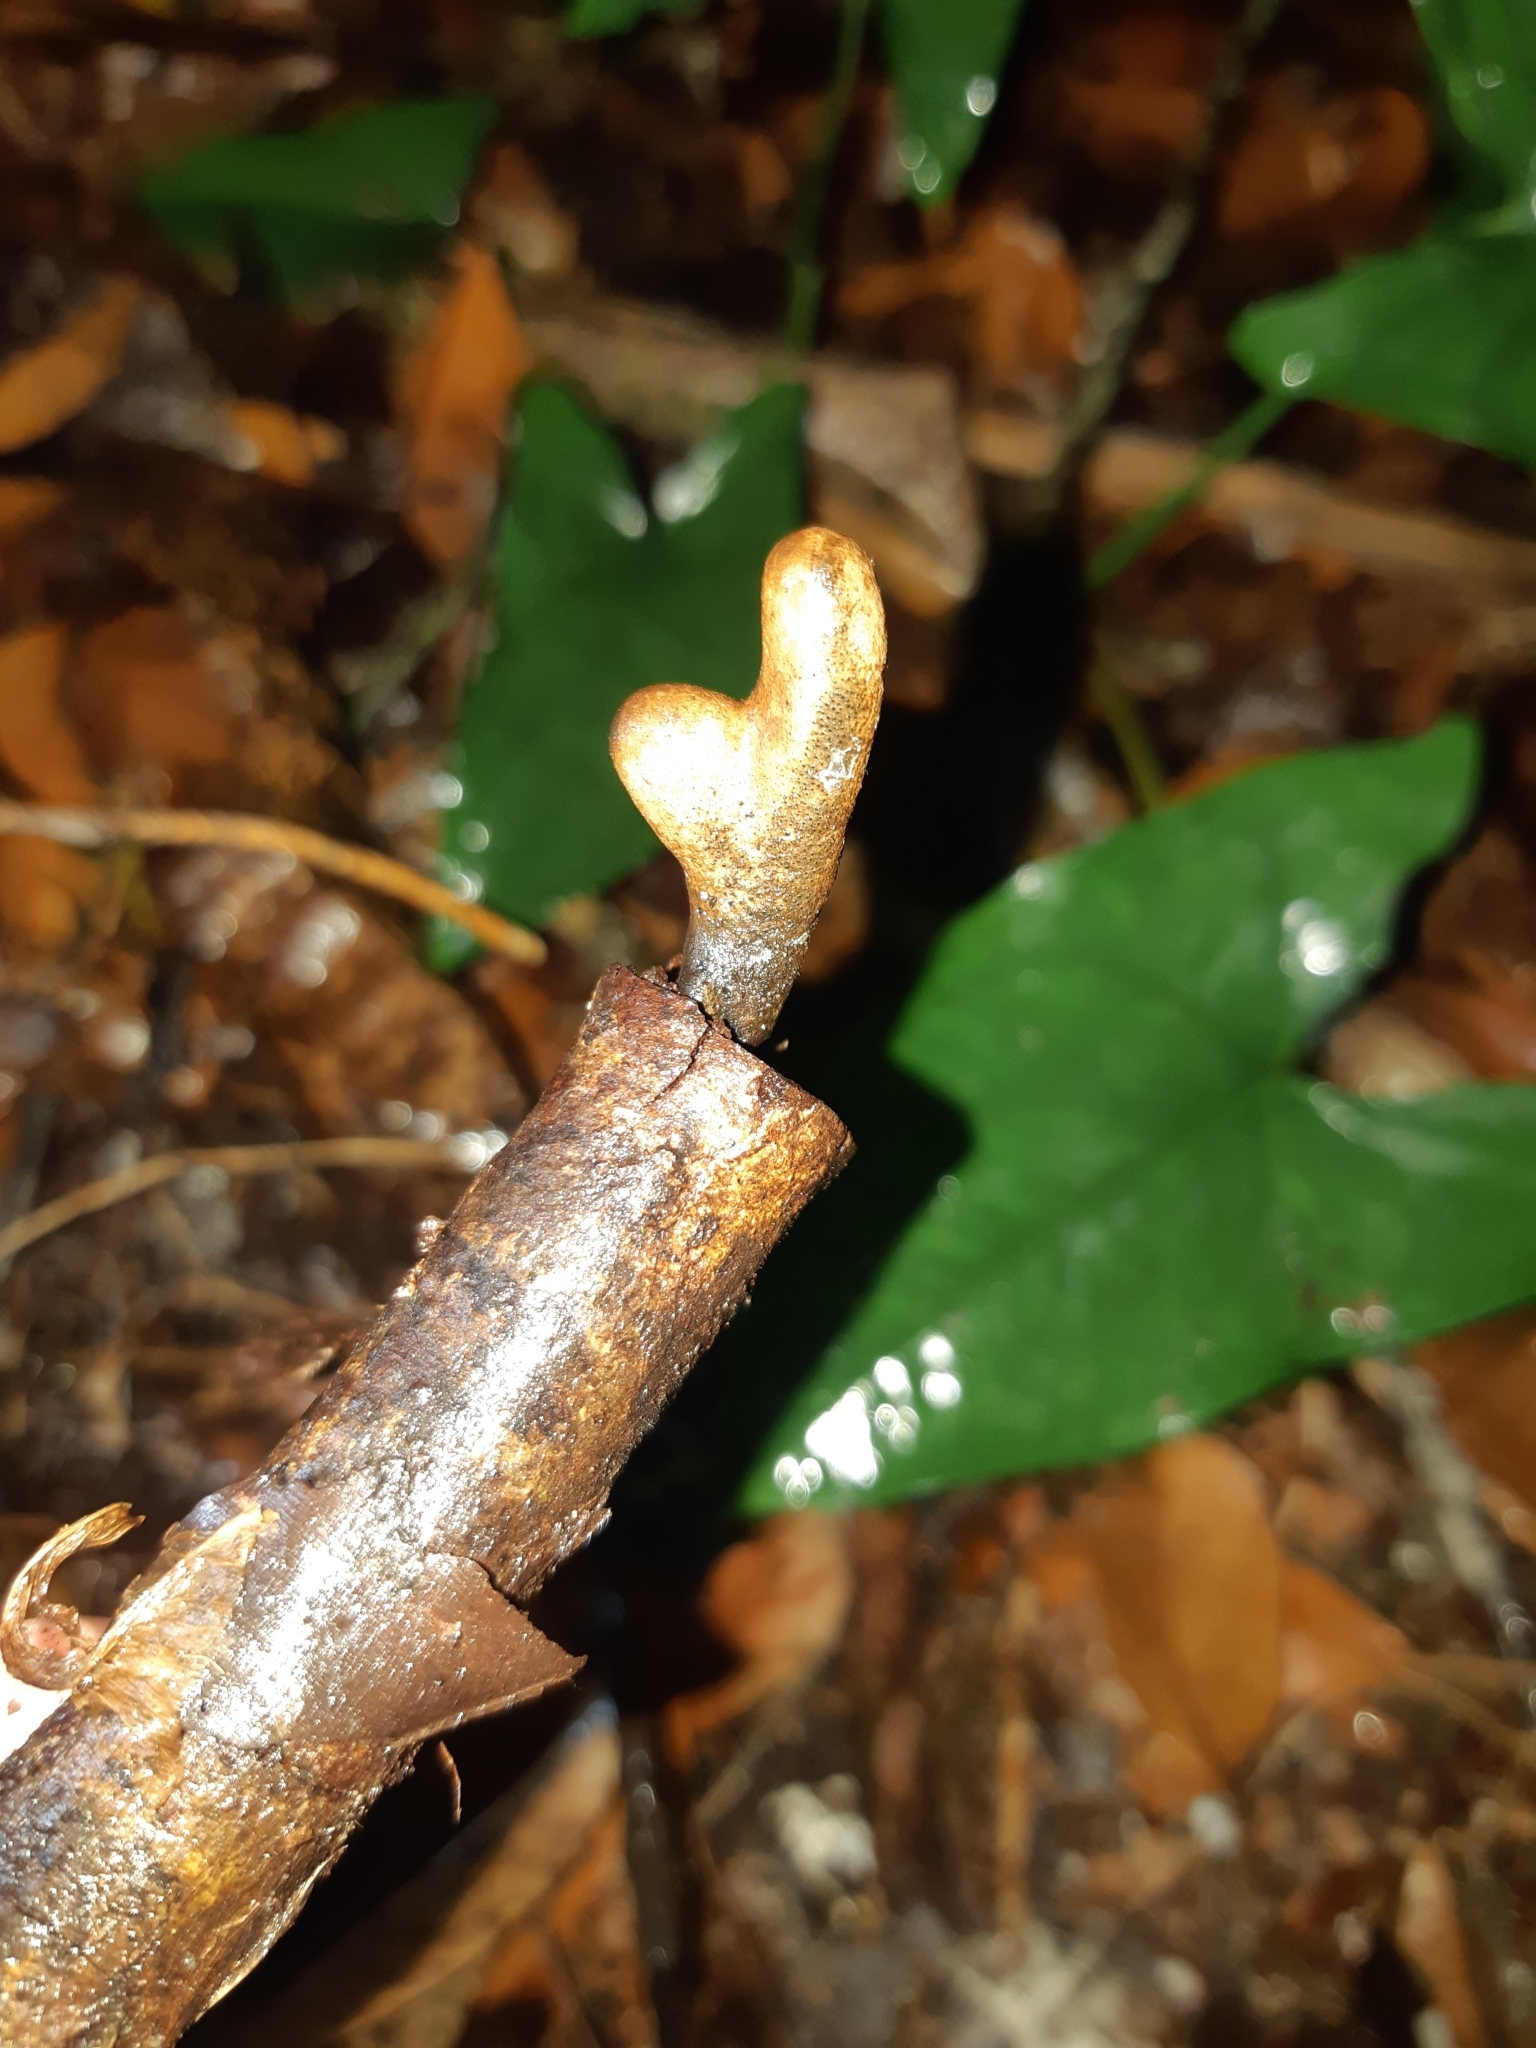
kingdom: Fungi
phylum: Ascomycota
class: Sordariomycetes
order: Xylariales
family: Xylariaceae
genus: Xylaria
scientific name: Xylaria longipes
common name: Dead moll's fingers
